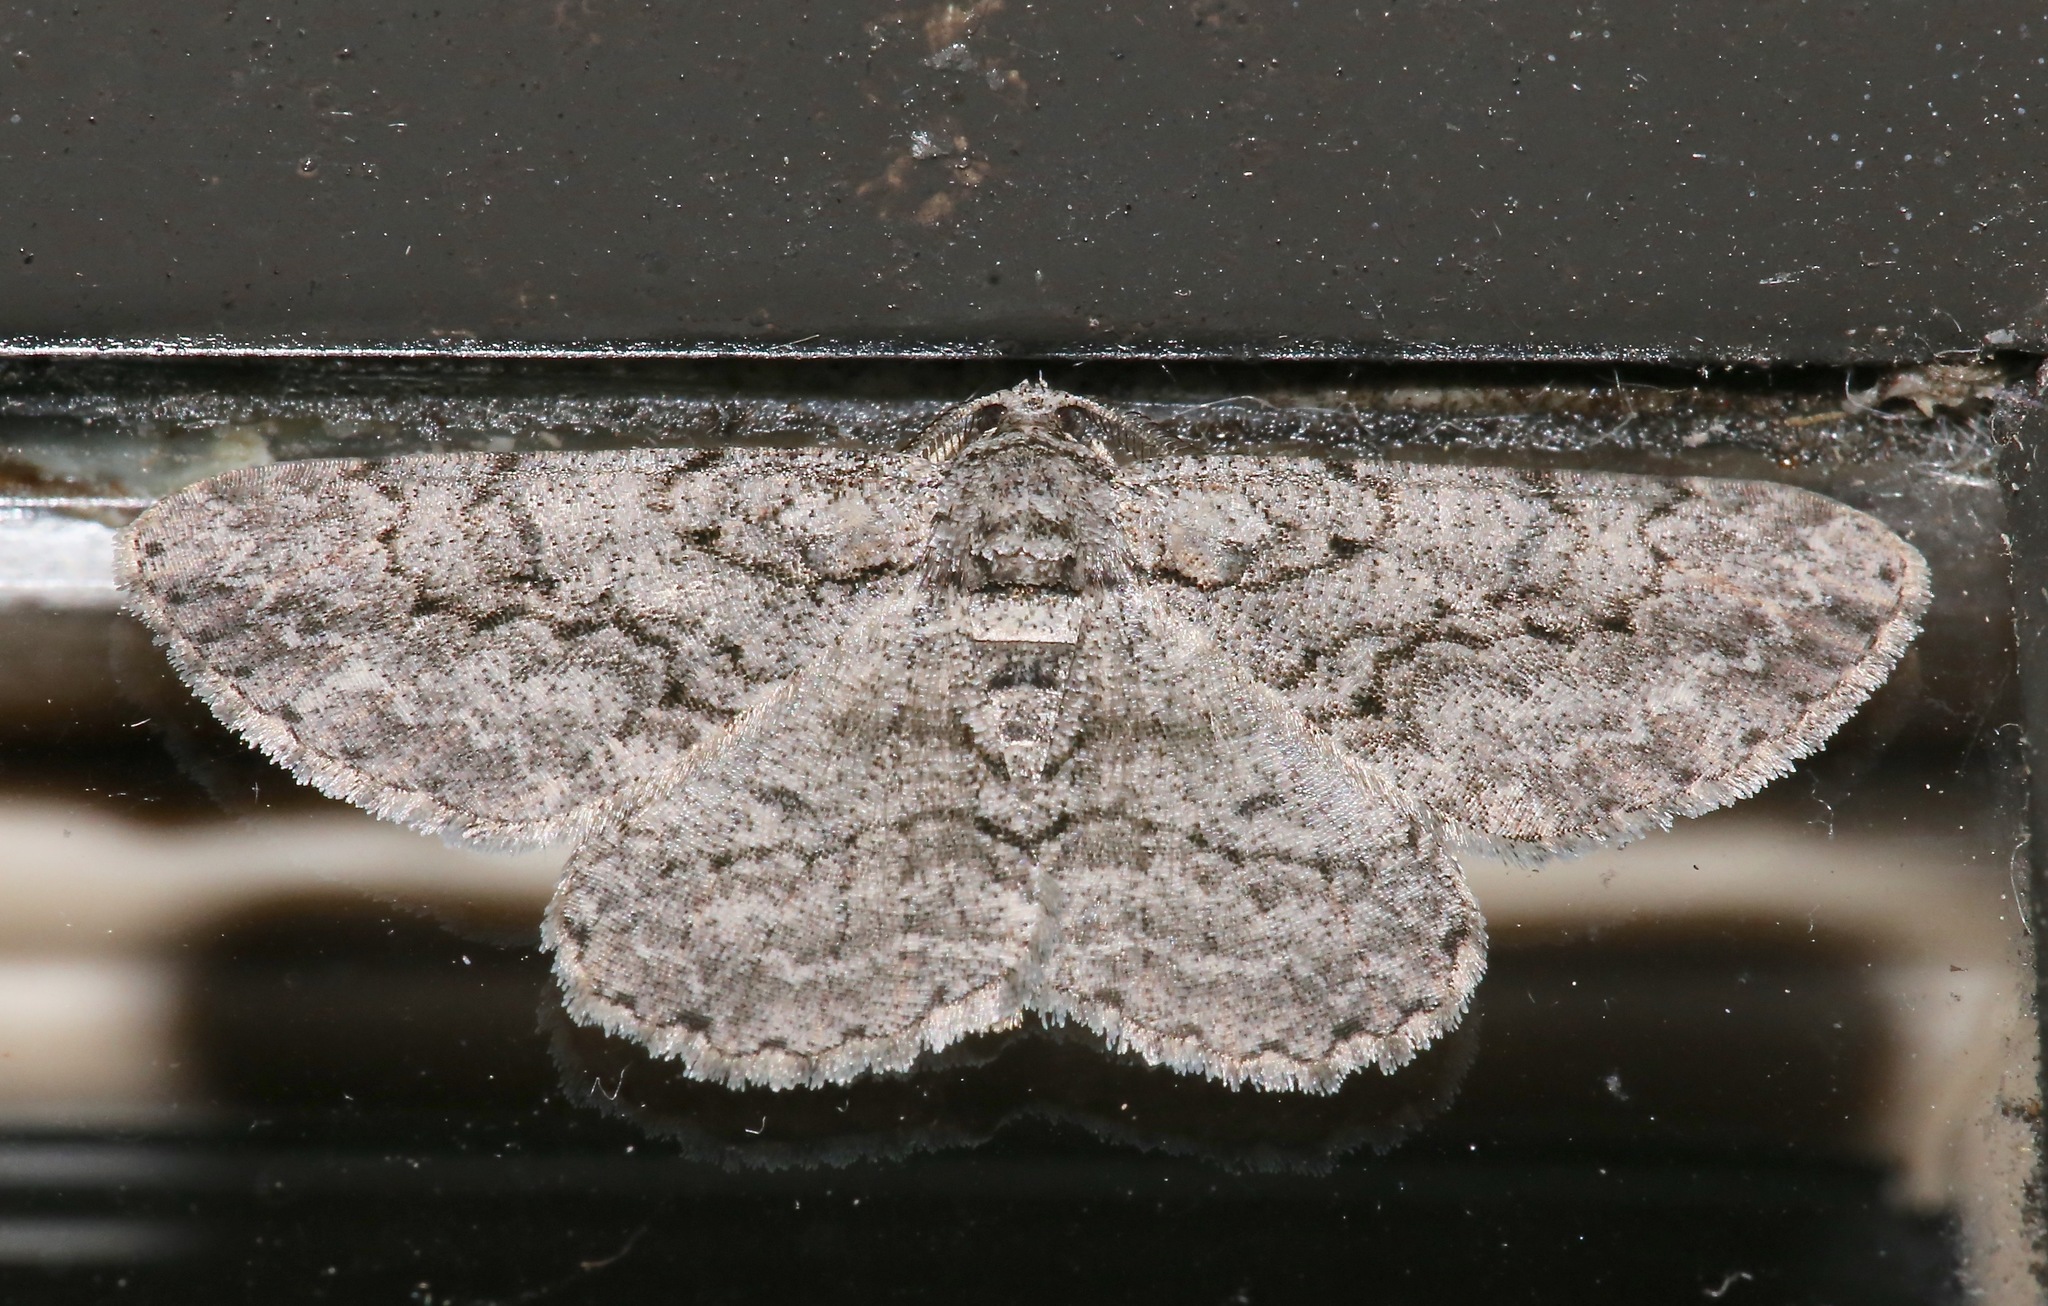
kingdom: Animalia
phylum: Arthropoda
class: Insecta
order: Lepidoptera
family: Geometridae
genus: Anavitrinella
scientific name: Anavitrinella pampinaria
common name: Common gray
